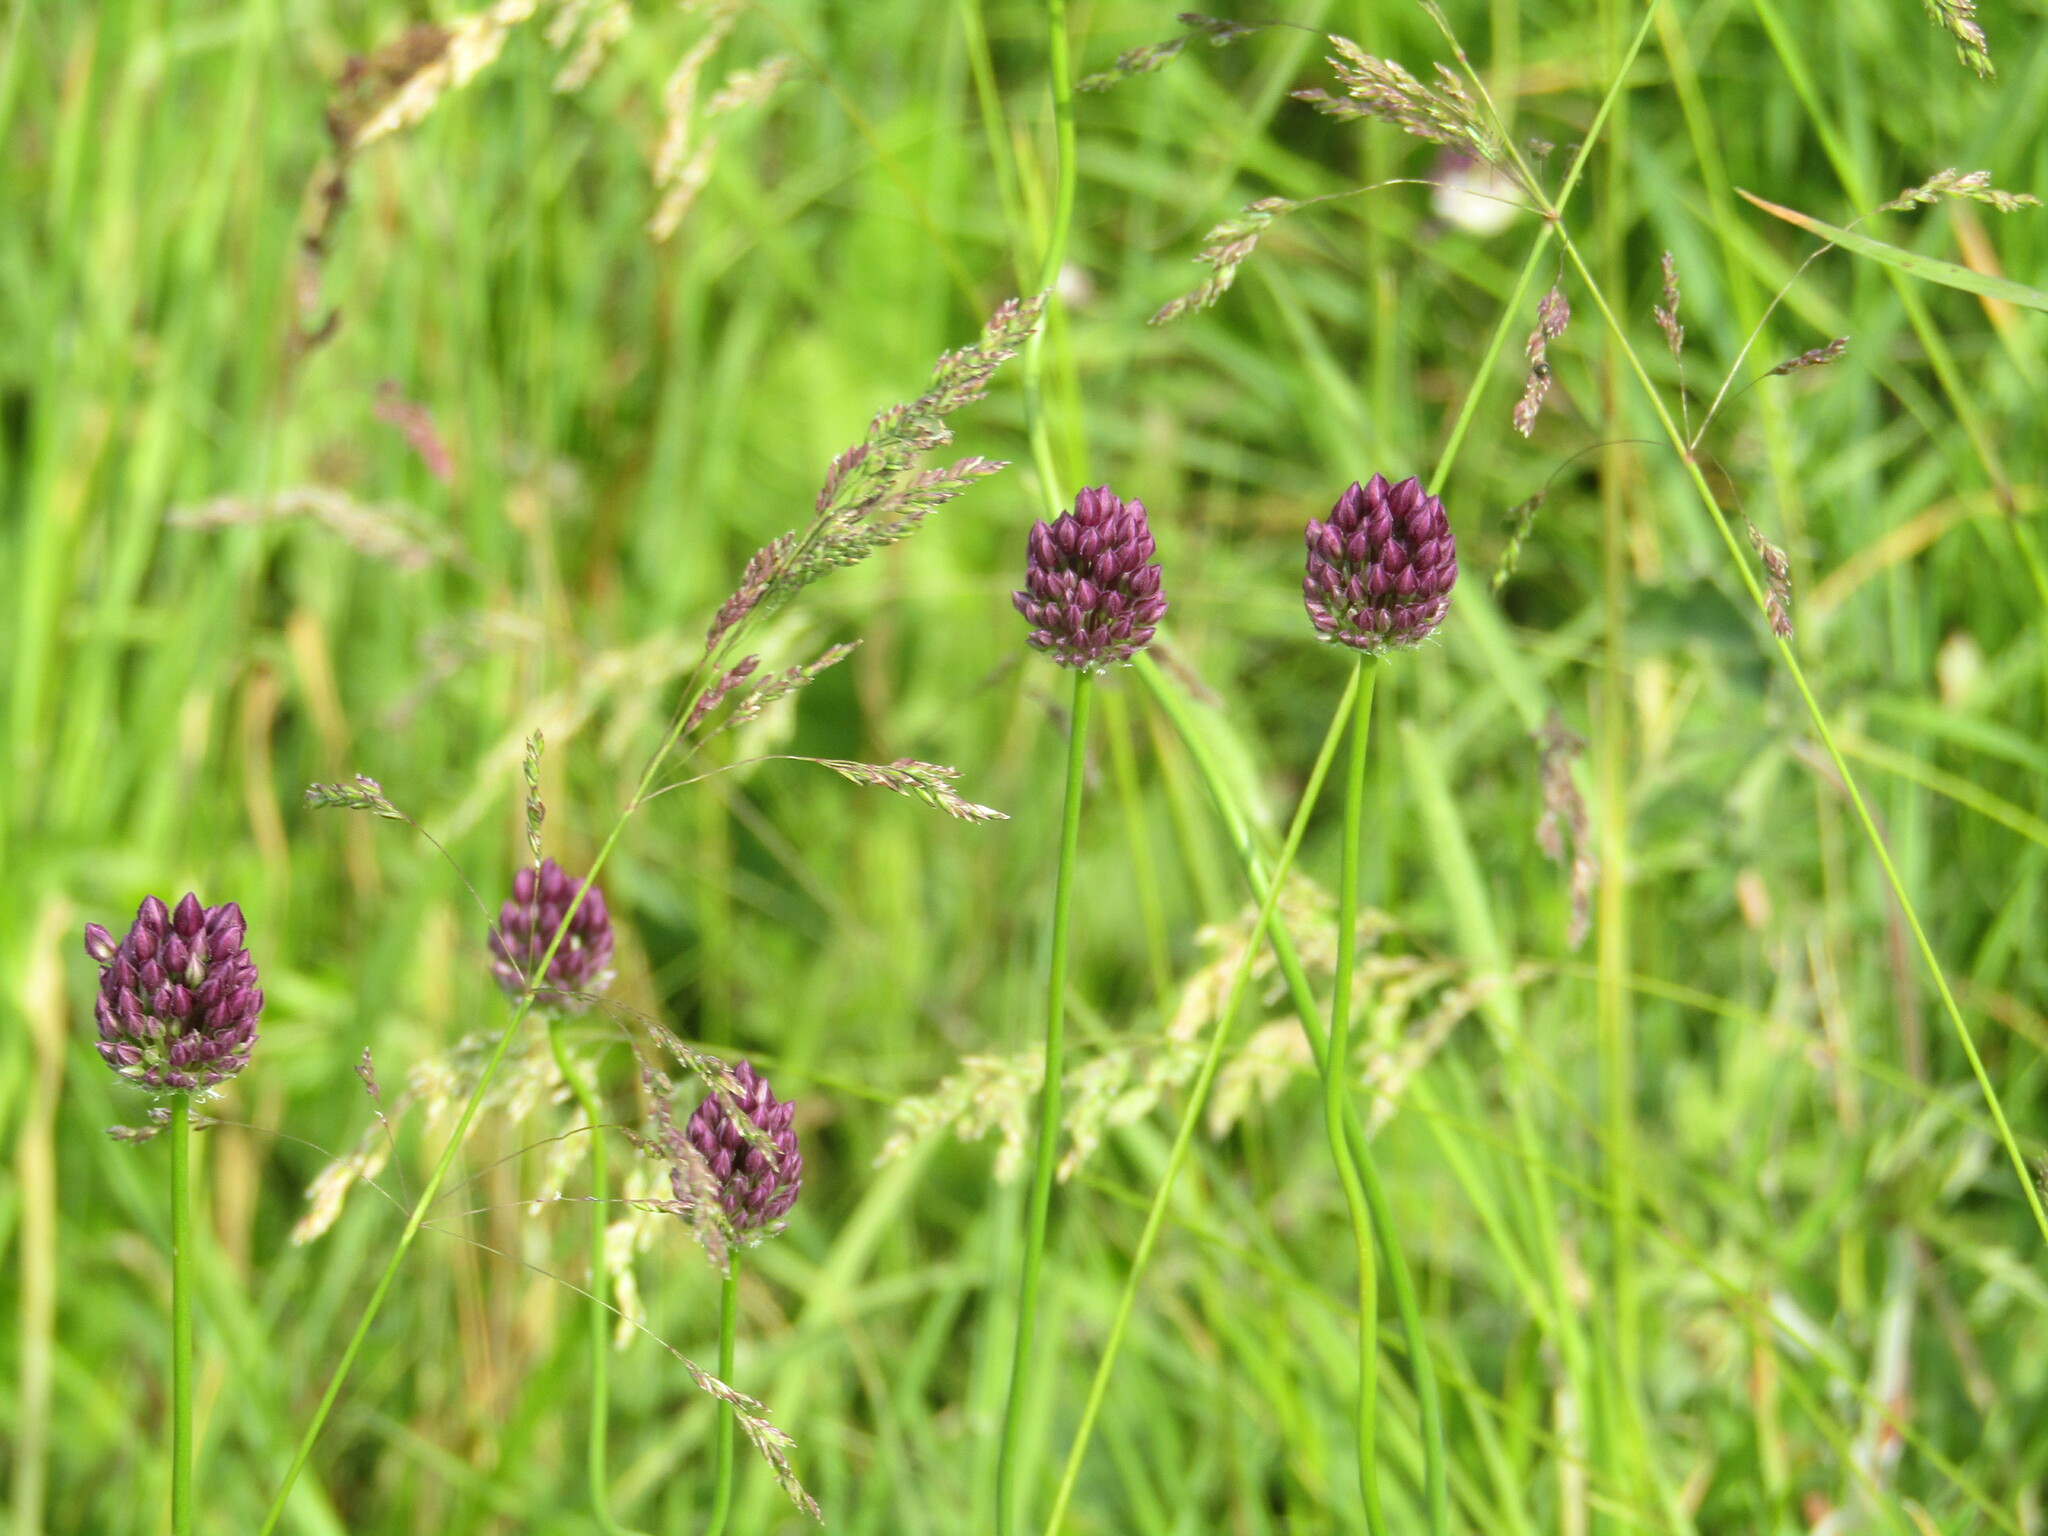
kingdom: Plantae
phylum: Tracheophyta
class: Liliopsida
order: Asparagales
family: Amaryllidaceae
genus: Allium
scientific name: Allium rotundum
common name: Sand leek
